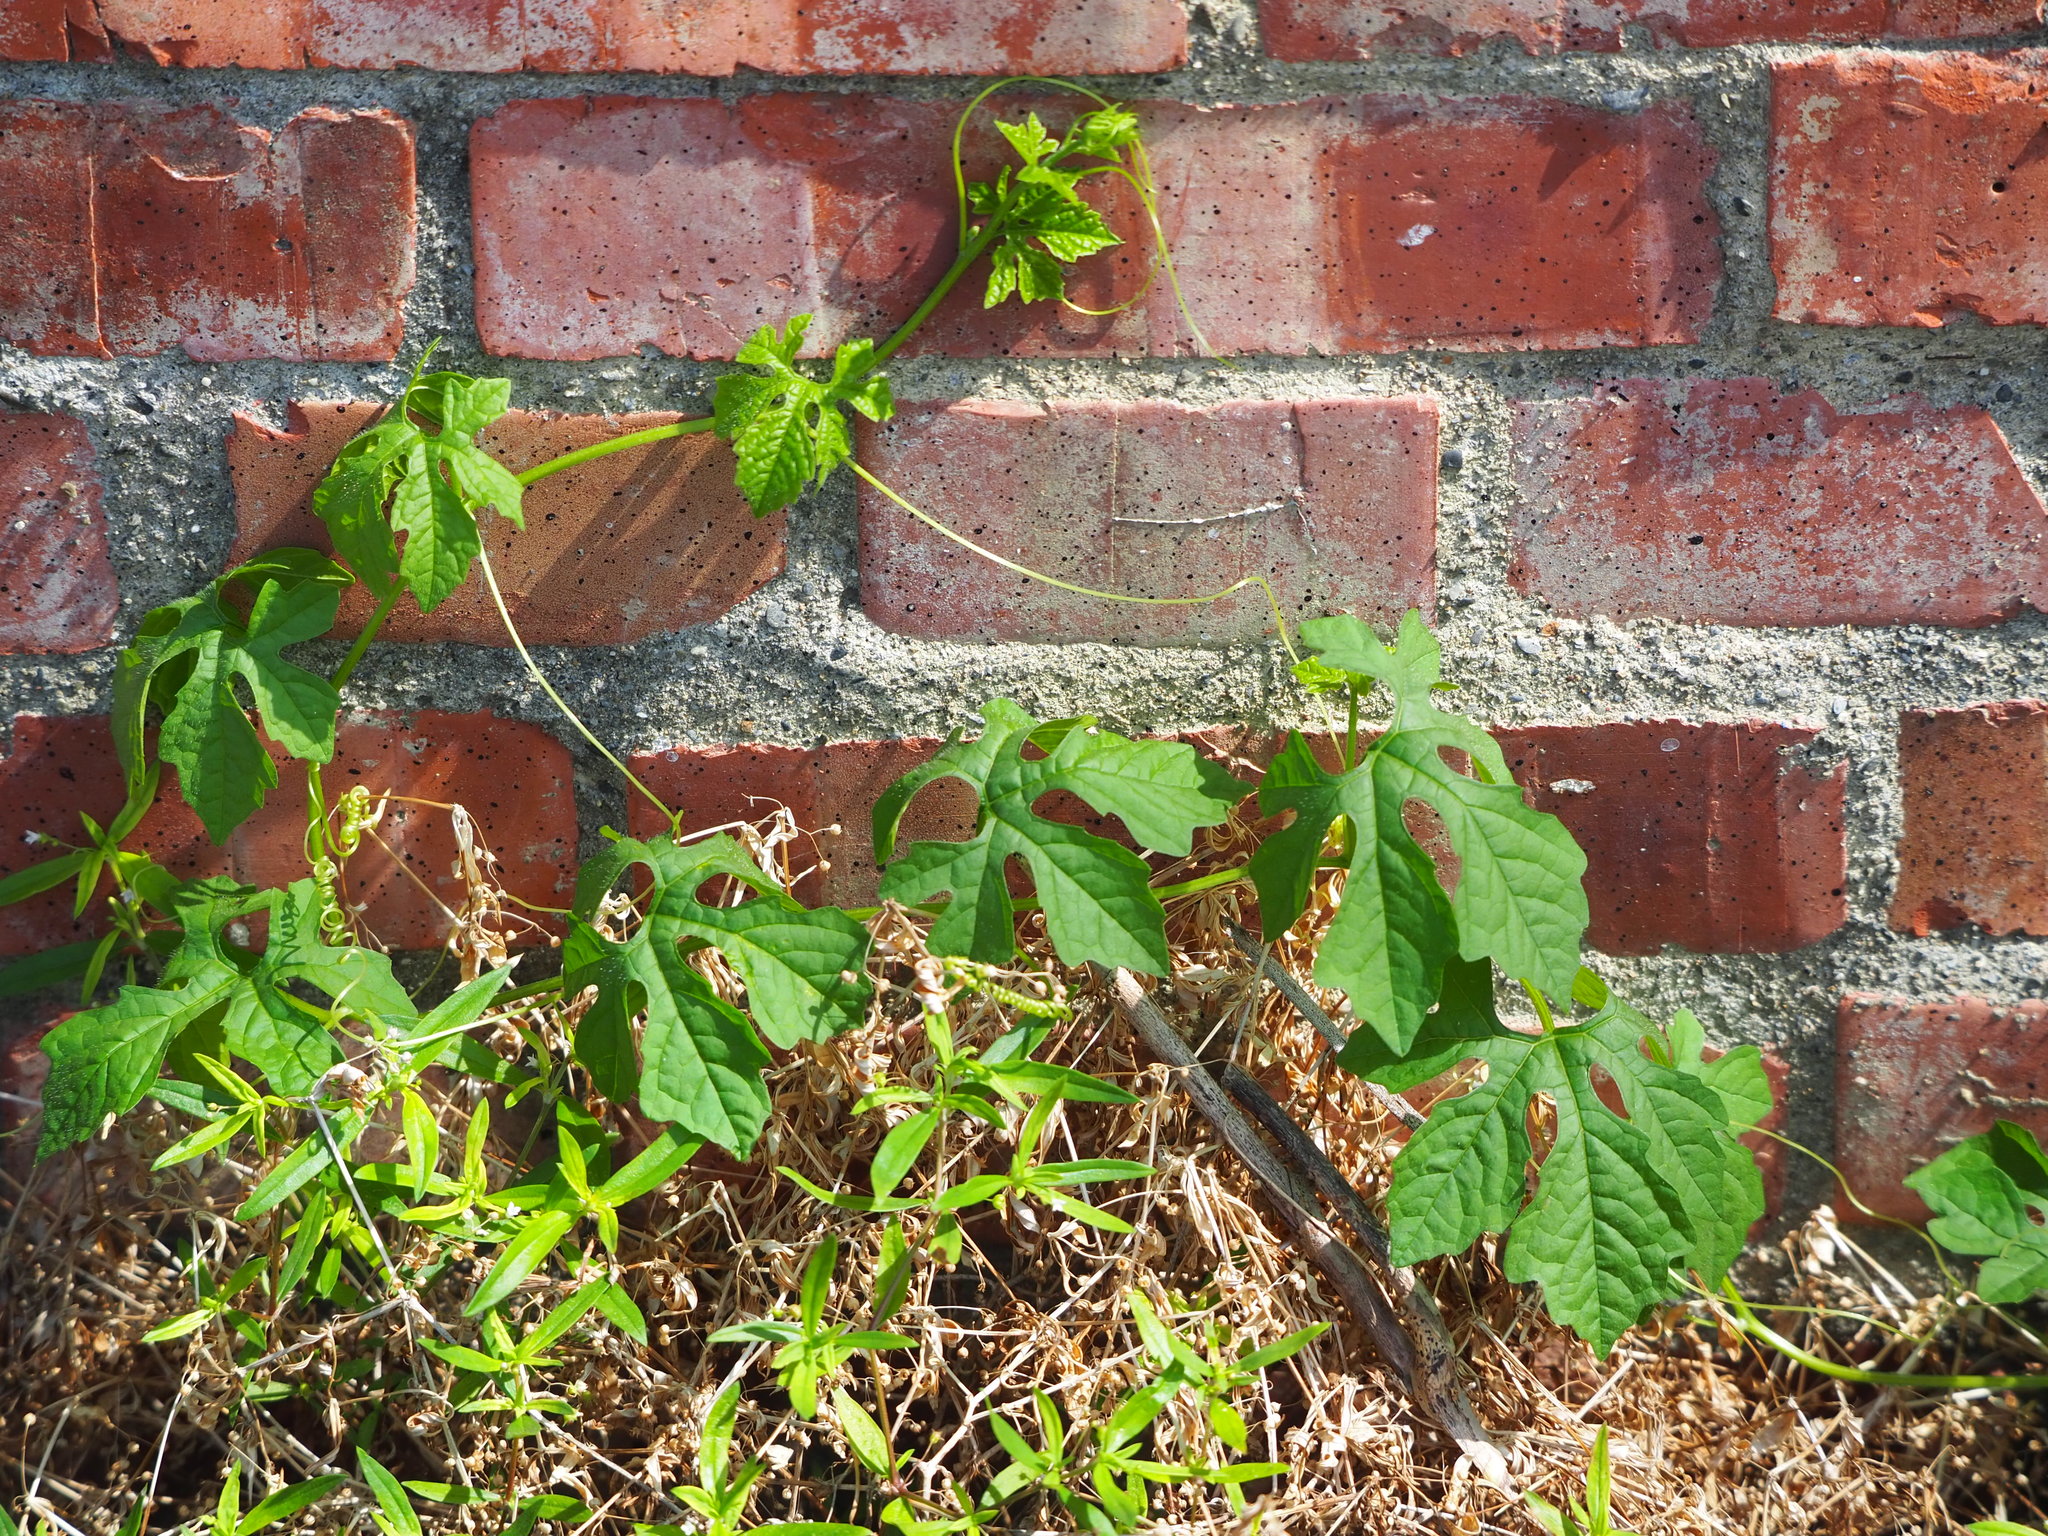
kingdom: Plantae
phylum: Tracheophyta
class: Magnoliopsida
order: Cucurbitales
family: Cucurbitaceae
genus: Momordica
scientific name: Momordica charantia
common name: Balsampear
